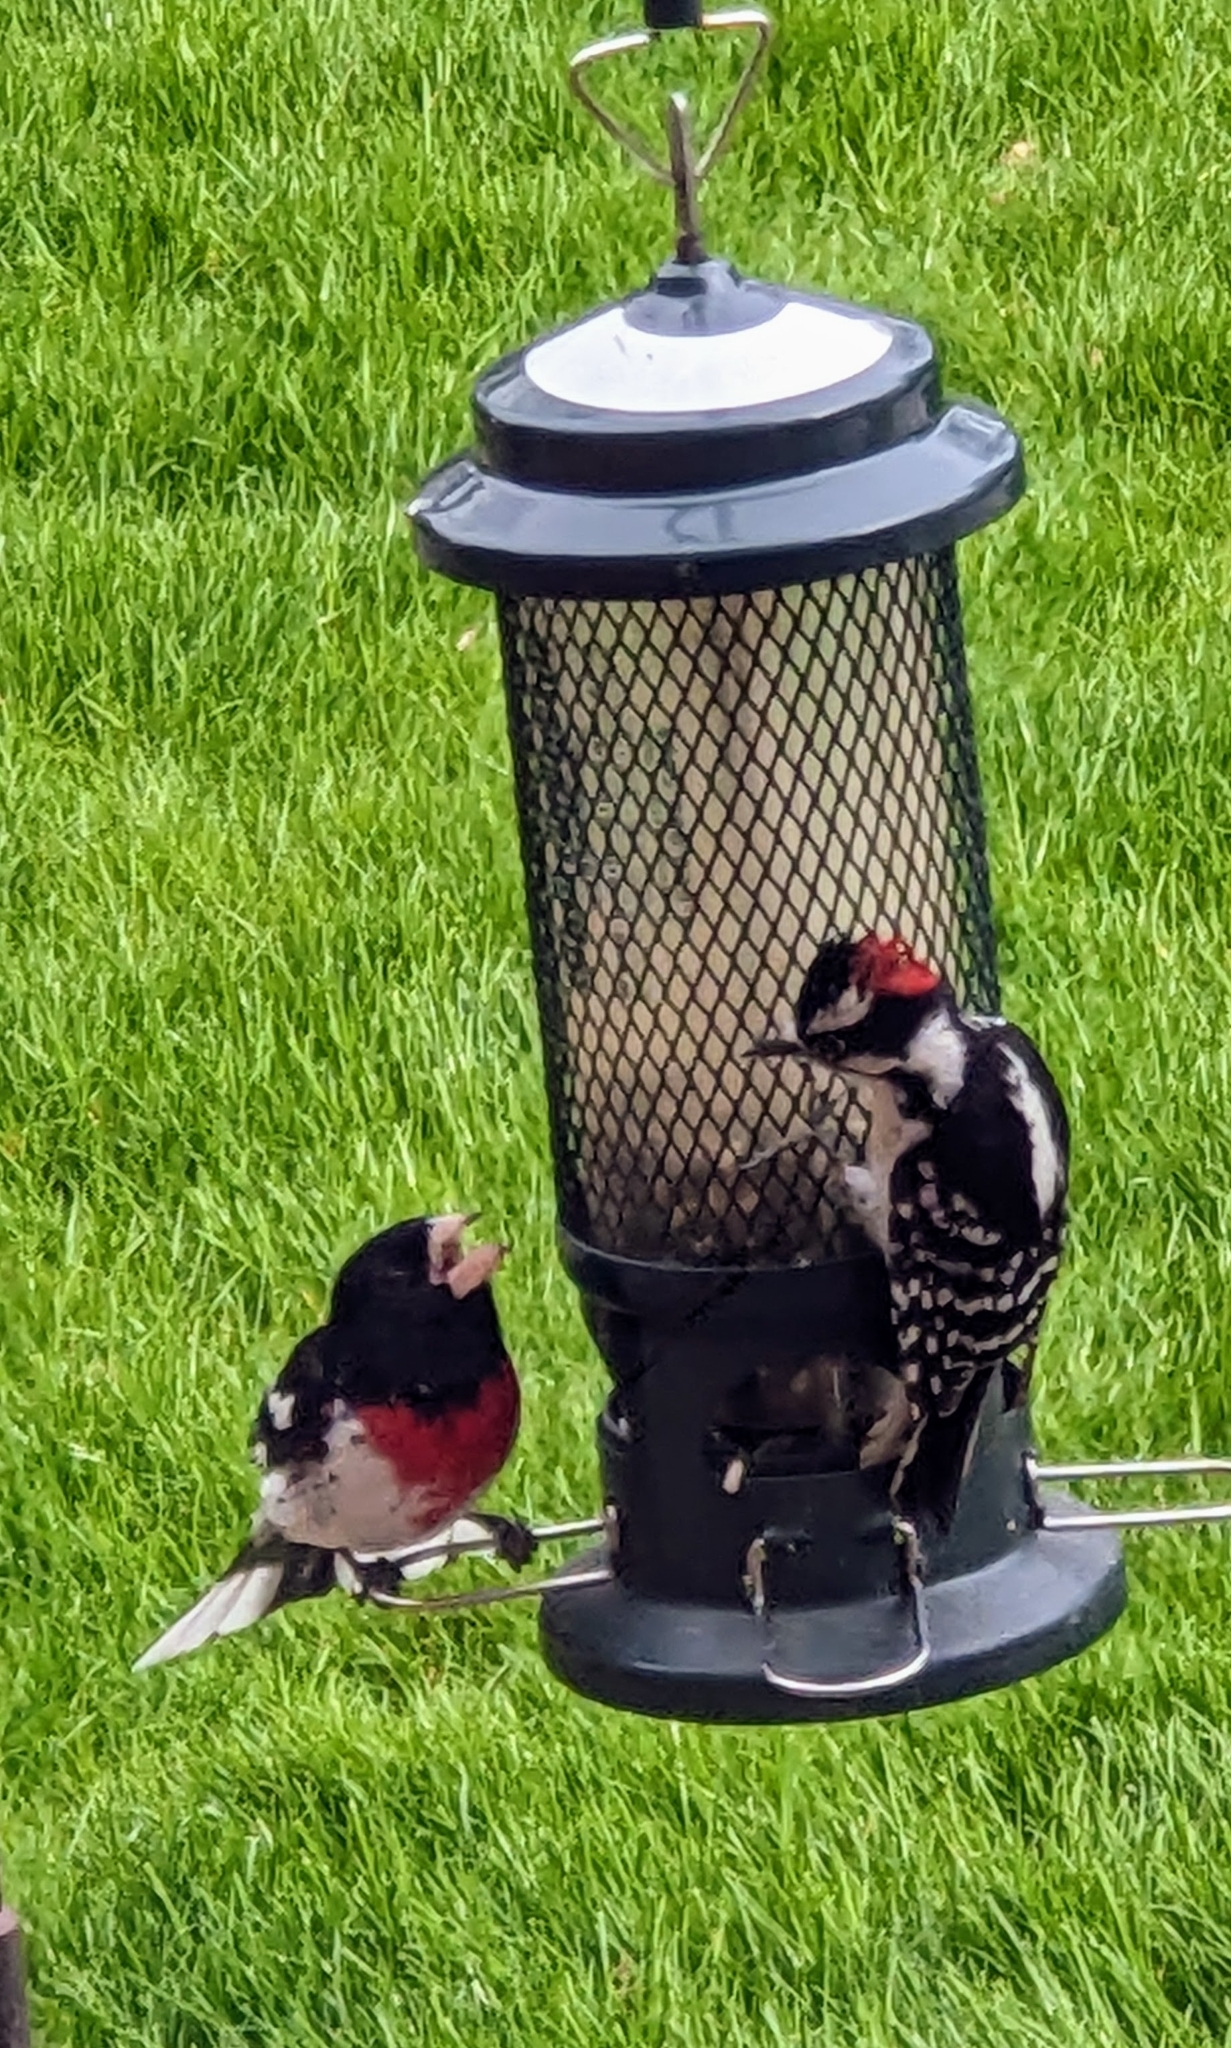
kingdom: Animalia
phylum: Chordata
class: Aves
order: Piciformes
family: Picidae
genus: Dryobates
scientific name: Dryobates pubescens
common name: Downy woodpecker
